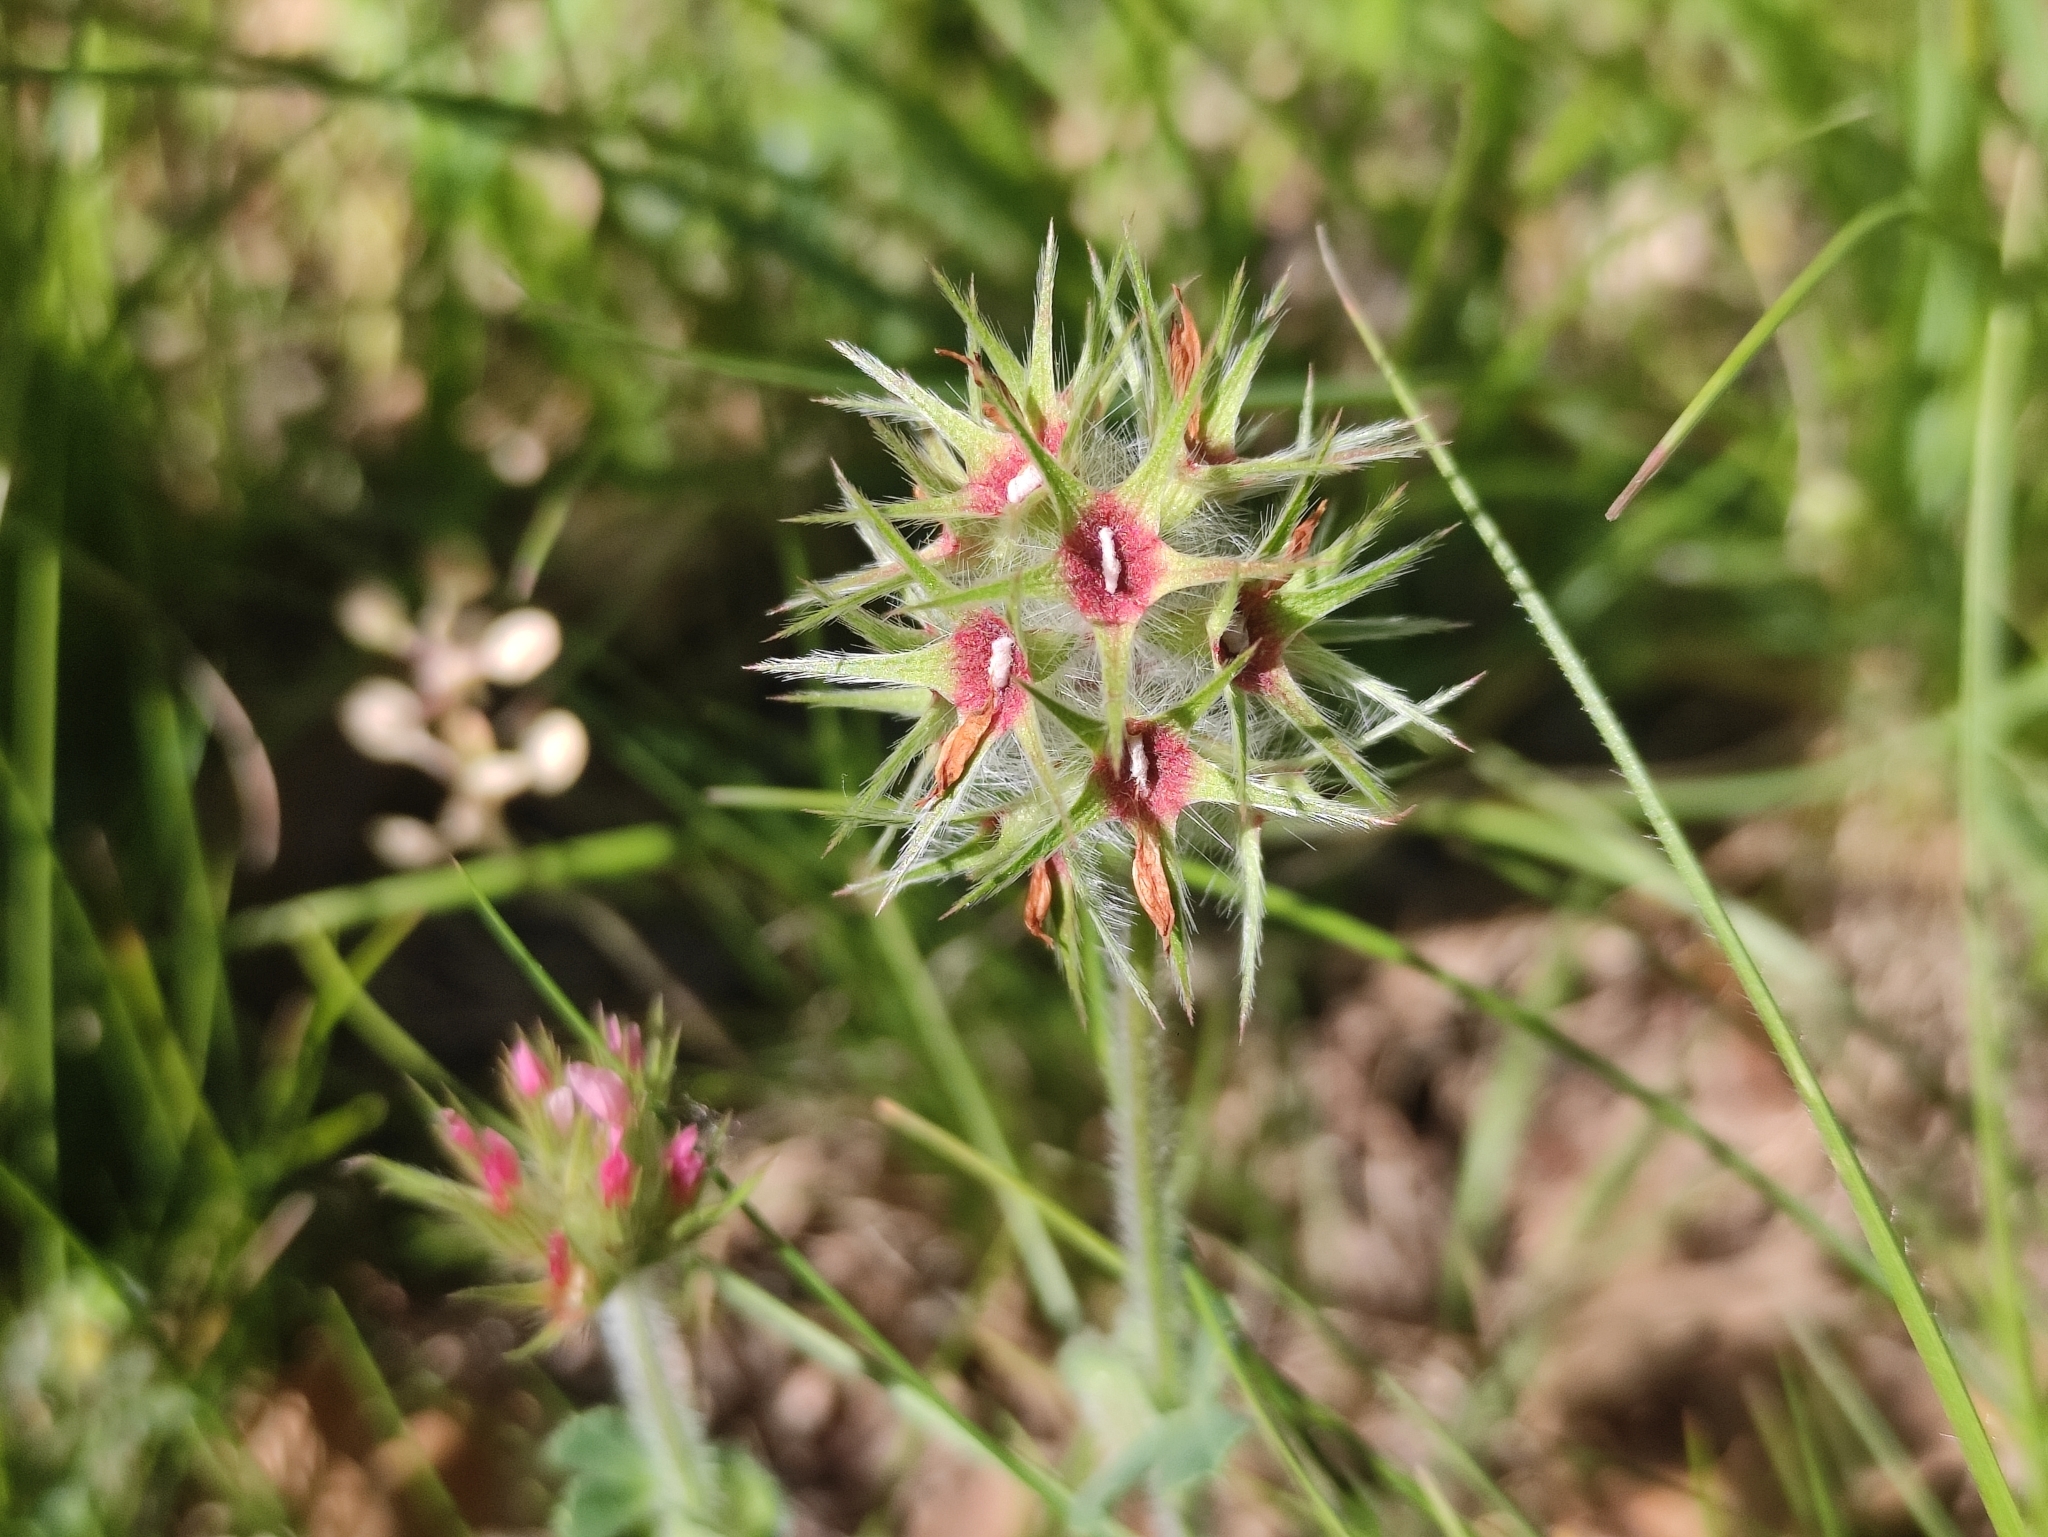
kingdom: Plantae
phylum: Tracheophyta
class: Magnoliopsida
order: Fabales
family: Fabaceae
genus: Trifolium
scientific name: Trifolium stellatum
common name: Starry clover
